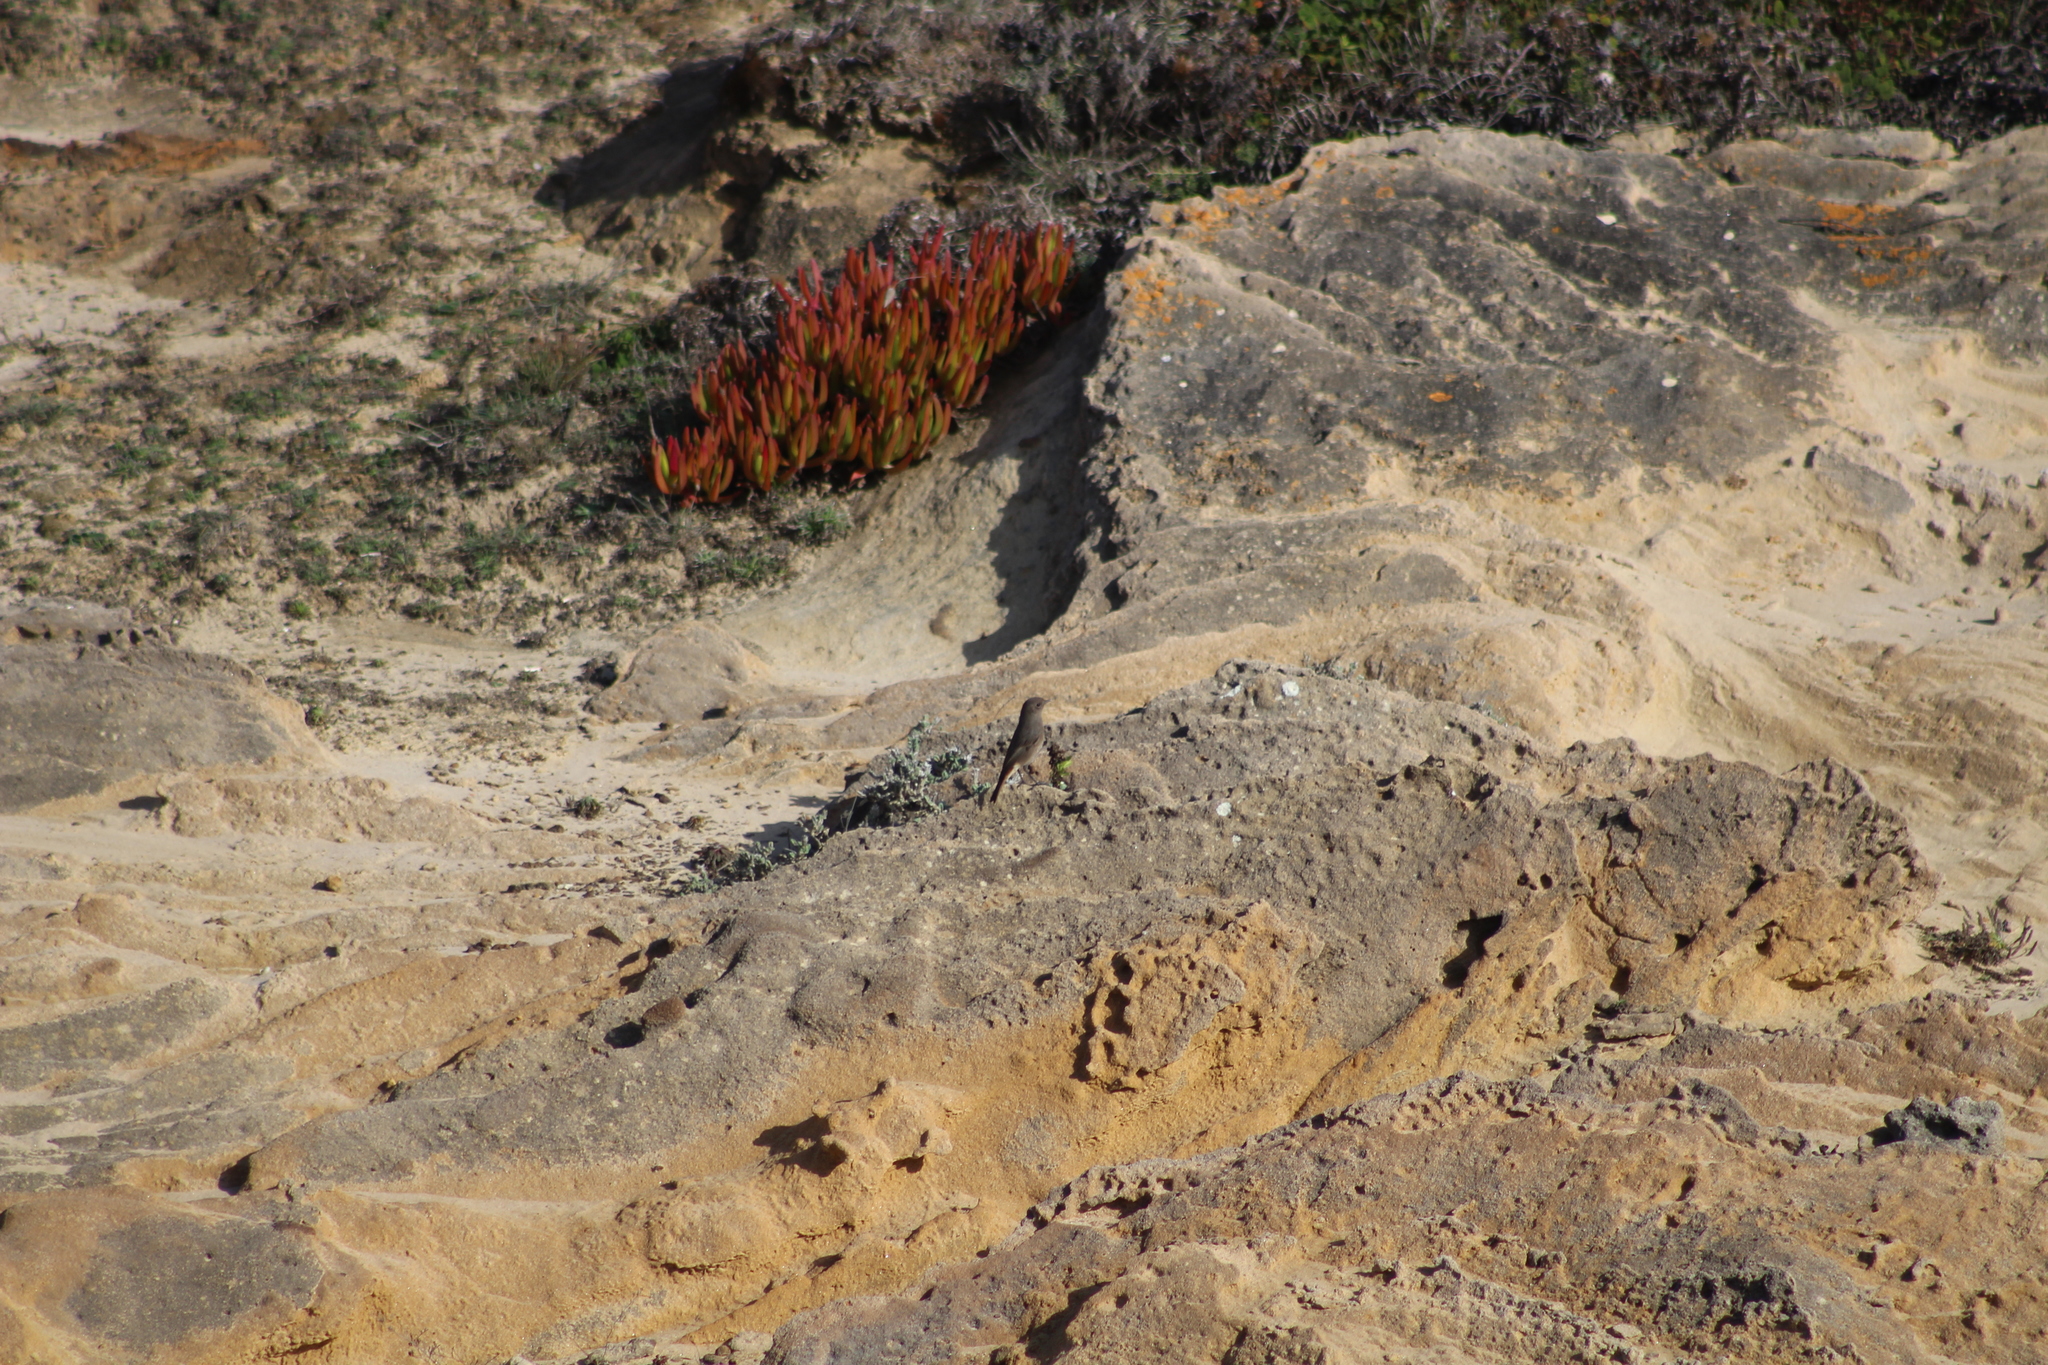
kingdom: Animalia
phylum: Chordata
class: Aves
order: Passeriformes
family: Muscicapidae
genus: Phoenicurus
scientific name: Phoenicurus ochruros
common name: Black redstart
